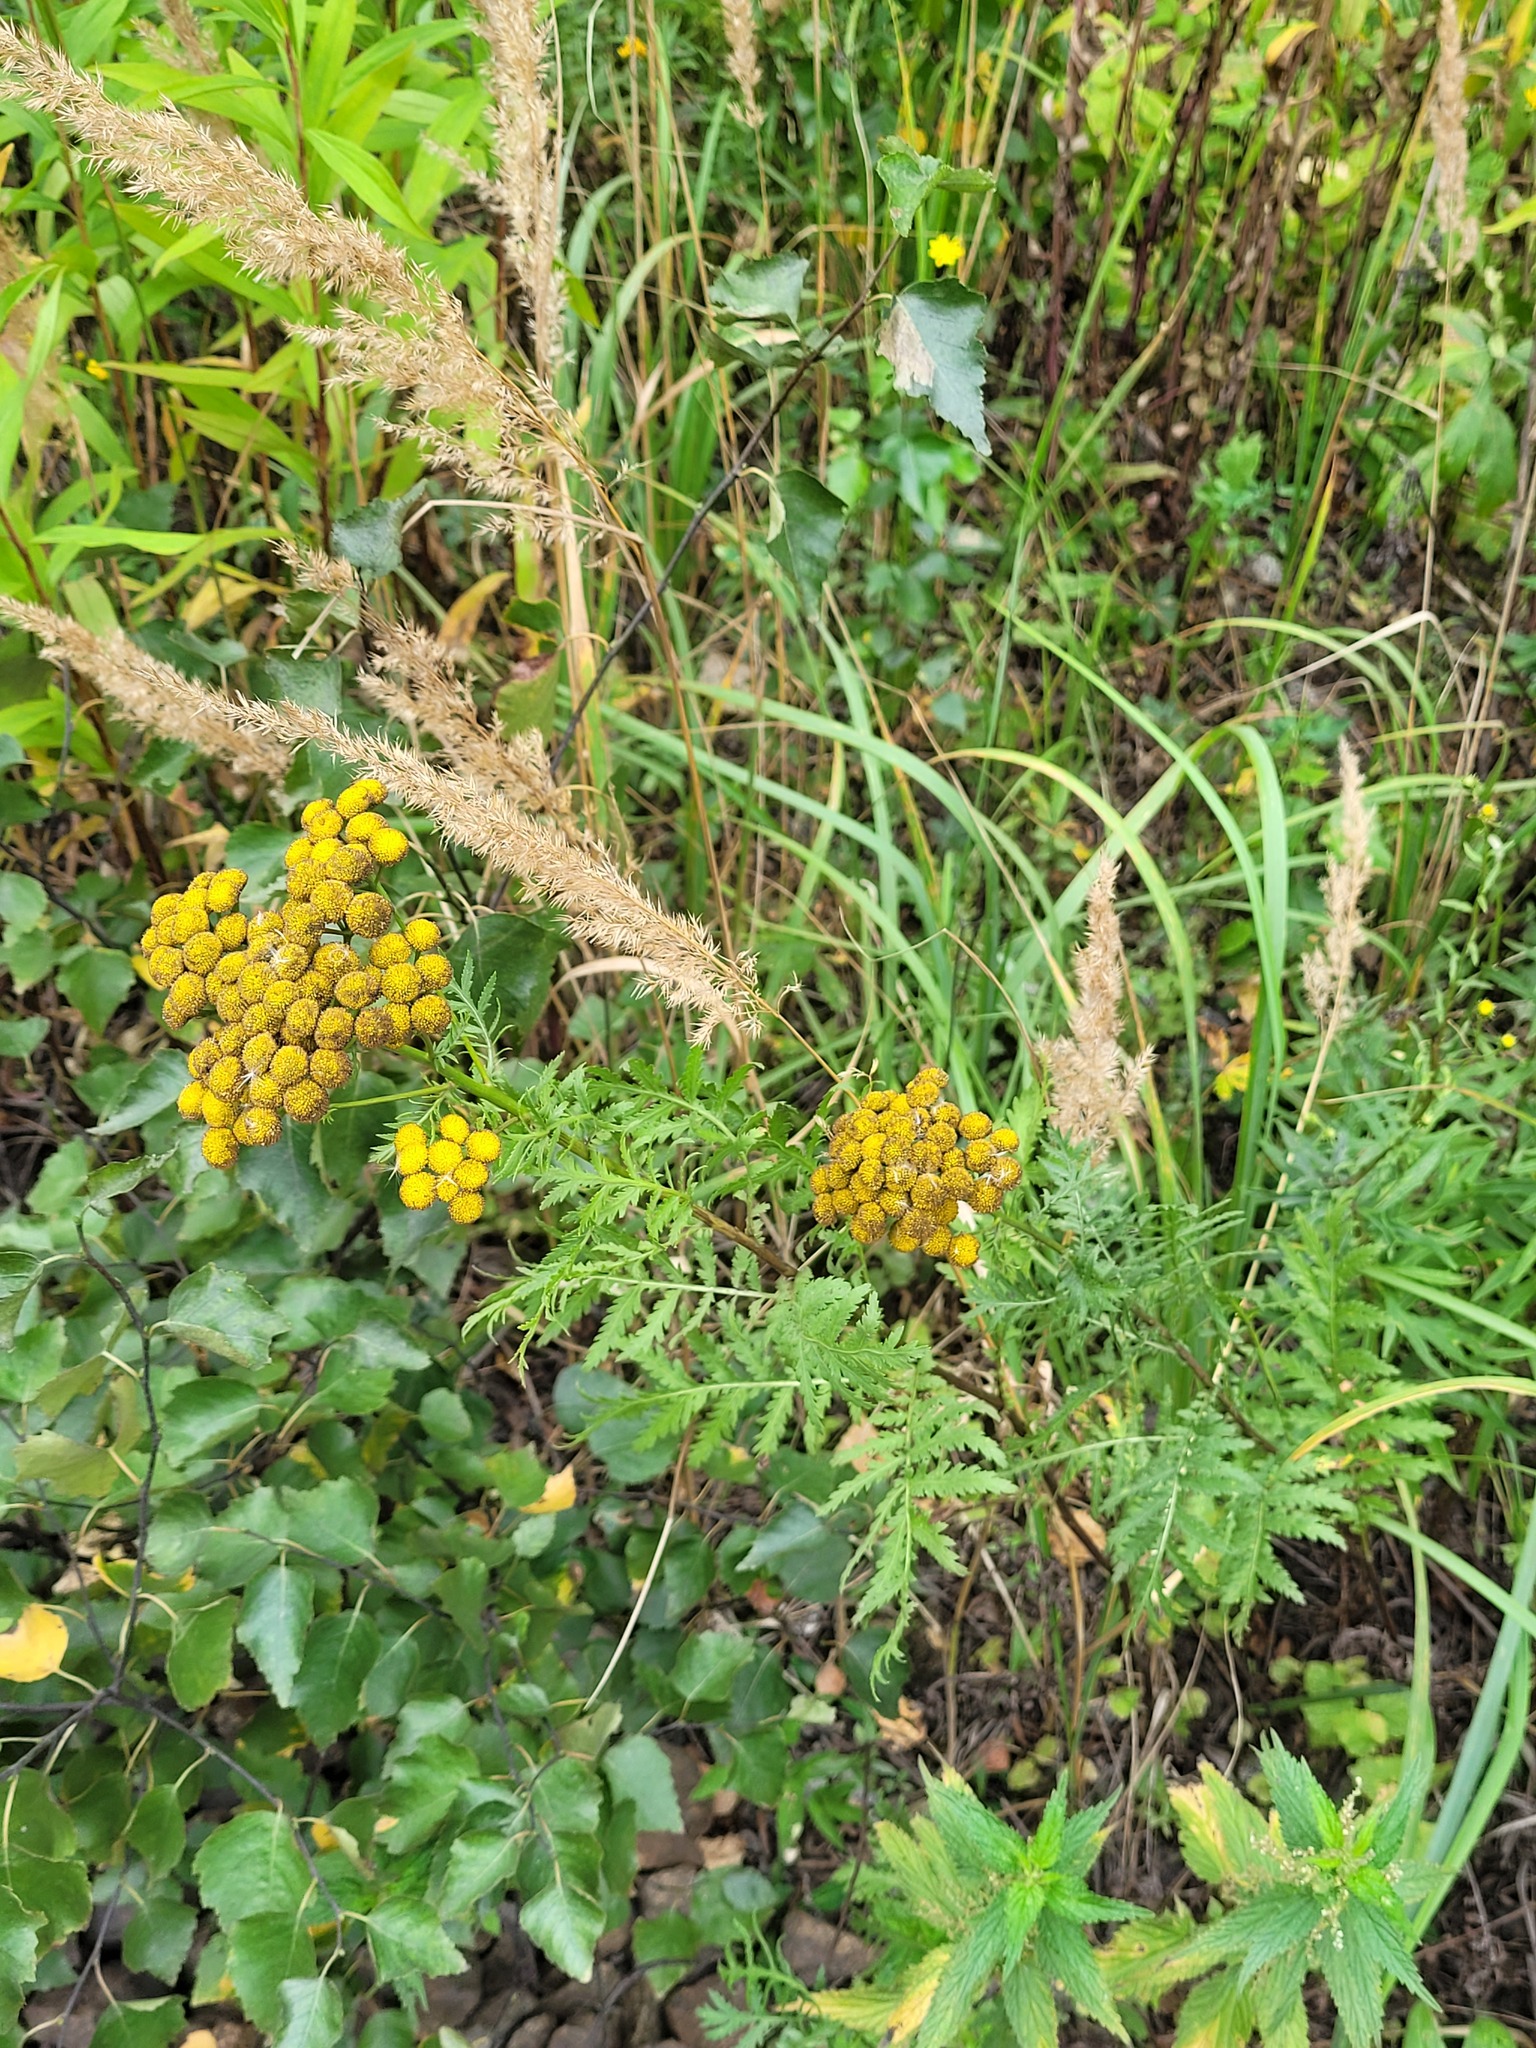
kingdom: Plantae
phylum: Tracheophyta
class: Magnoliopsida
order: Asterales
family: Asteraceae
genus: Tanacetum
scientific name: Tanacetum vulgare
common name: Common tansy
